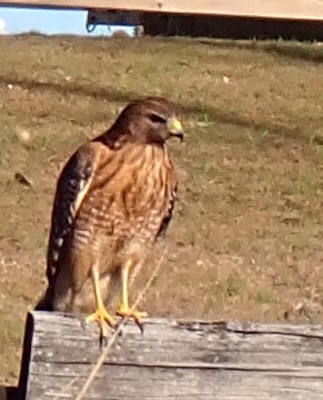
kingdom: Animalia
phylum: Chordata
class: Aves
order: Accipitriformes
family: Accipitridae
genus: Buteo
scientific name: Buteo lineatus
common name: Red-shouldered hawk
